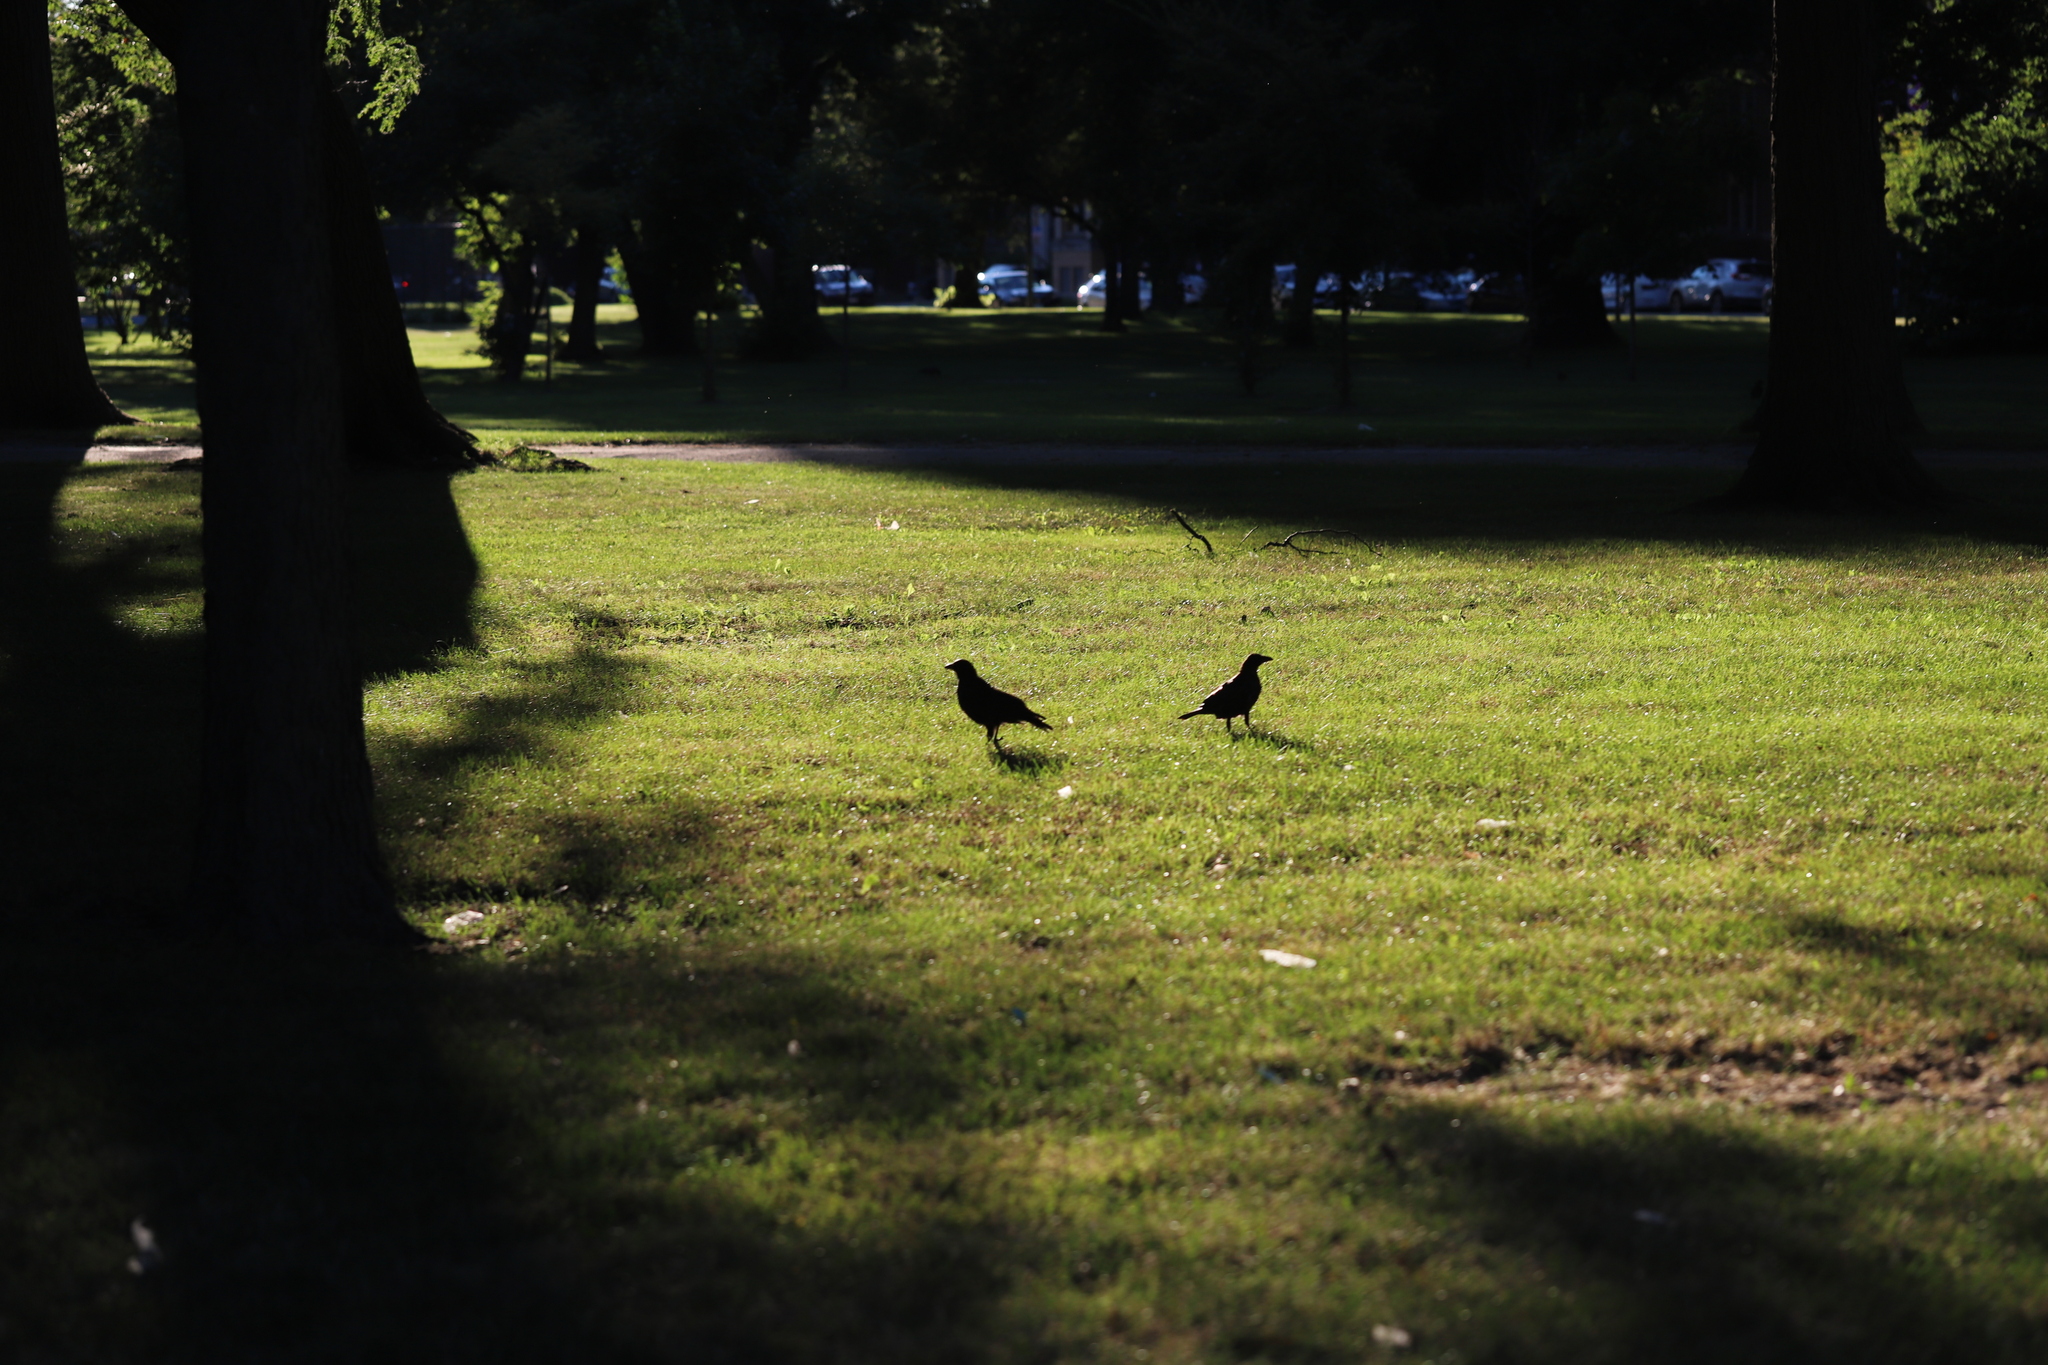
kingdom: Animalia
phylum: Chordata
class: Aves
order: Passeriformes
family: Corvidae
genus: Corvus
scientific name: Corvus brachyrhynchos
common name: American crow
